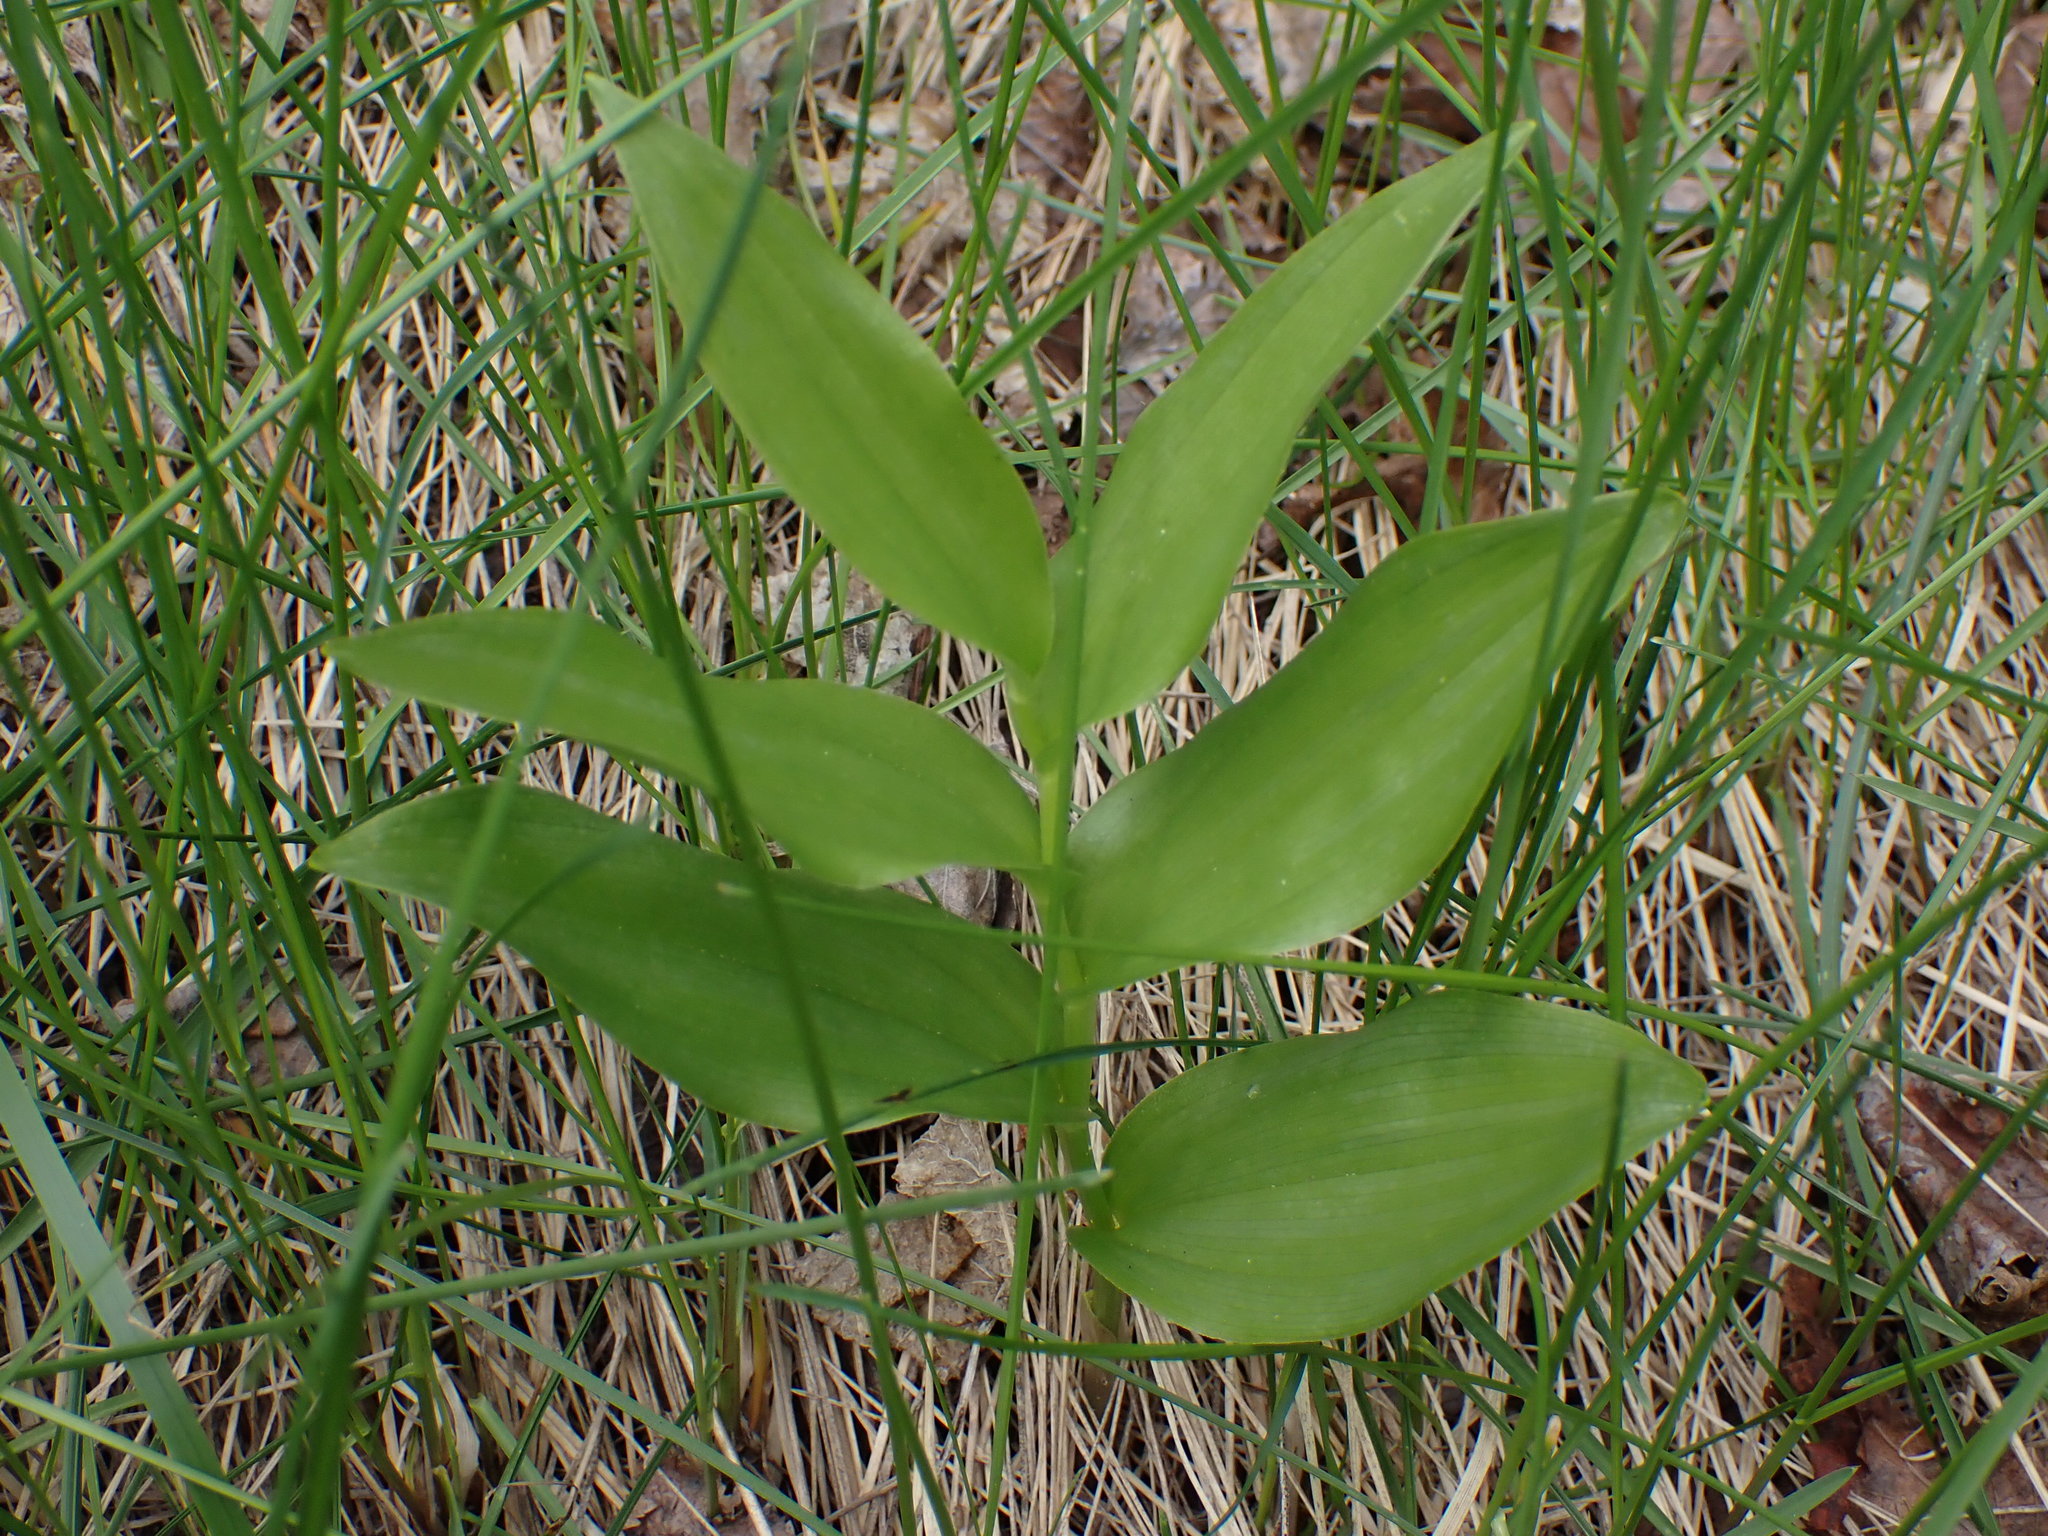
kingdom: Plantae
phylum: Tracheophyta
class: Liliopsida
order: Asparagales
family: Asparagaceae
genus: Maianthemum
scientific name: Maianthemum racemosum
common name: False spikenard
